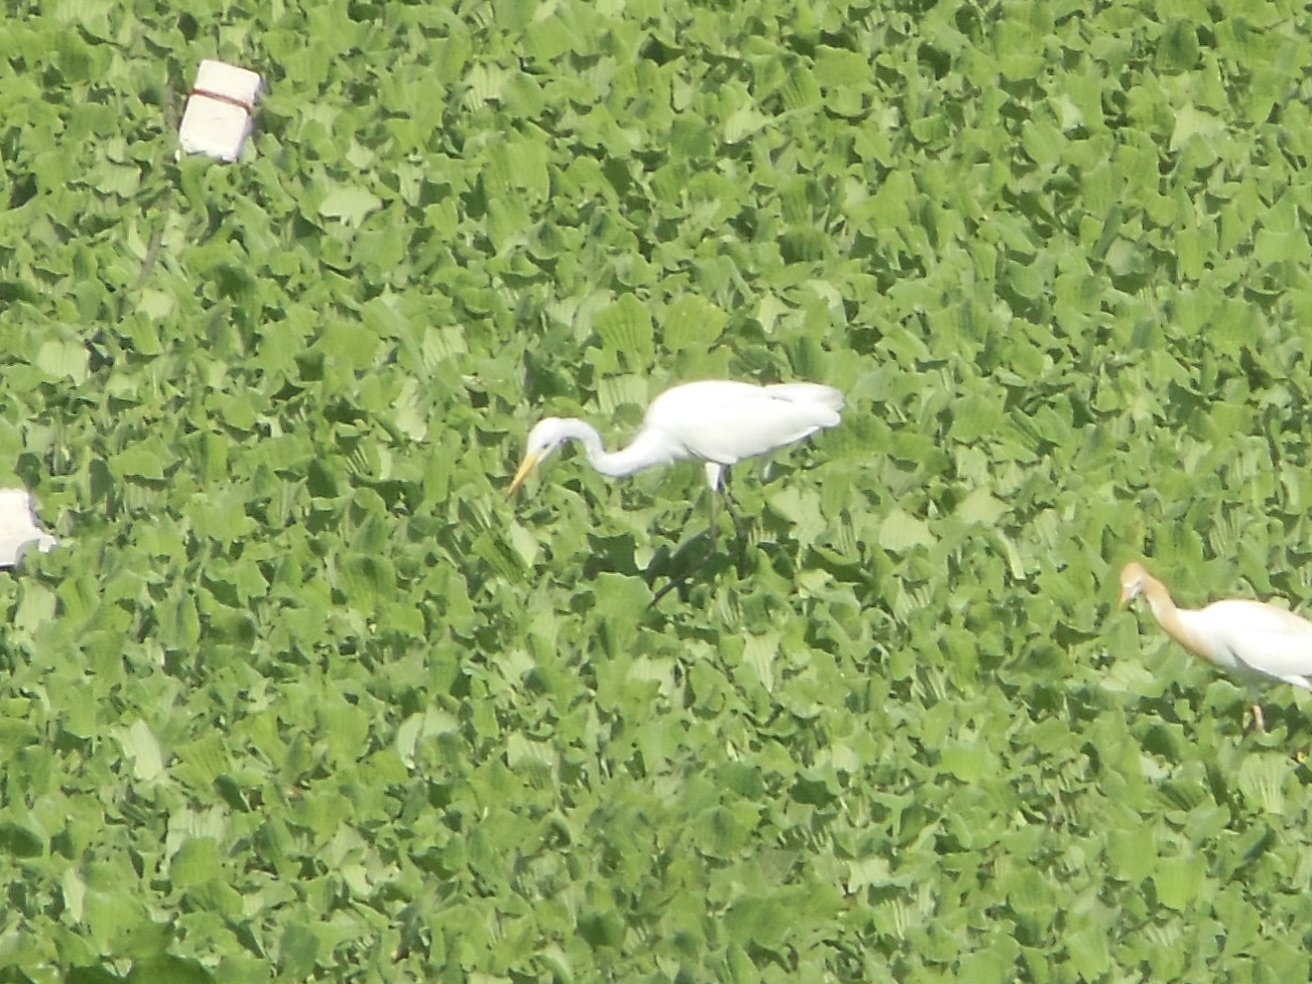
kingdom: Animalia
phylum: Chordata
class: Aves
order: Pelecaniformes
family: Ardeidae
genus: Egretta
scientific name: Egretta intermedia
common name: Intermediate egret
